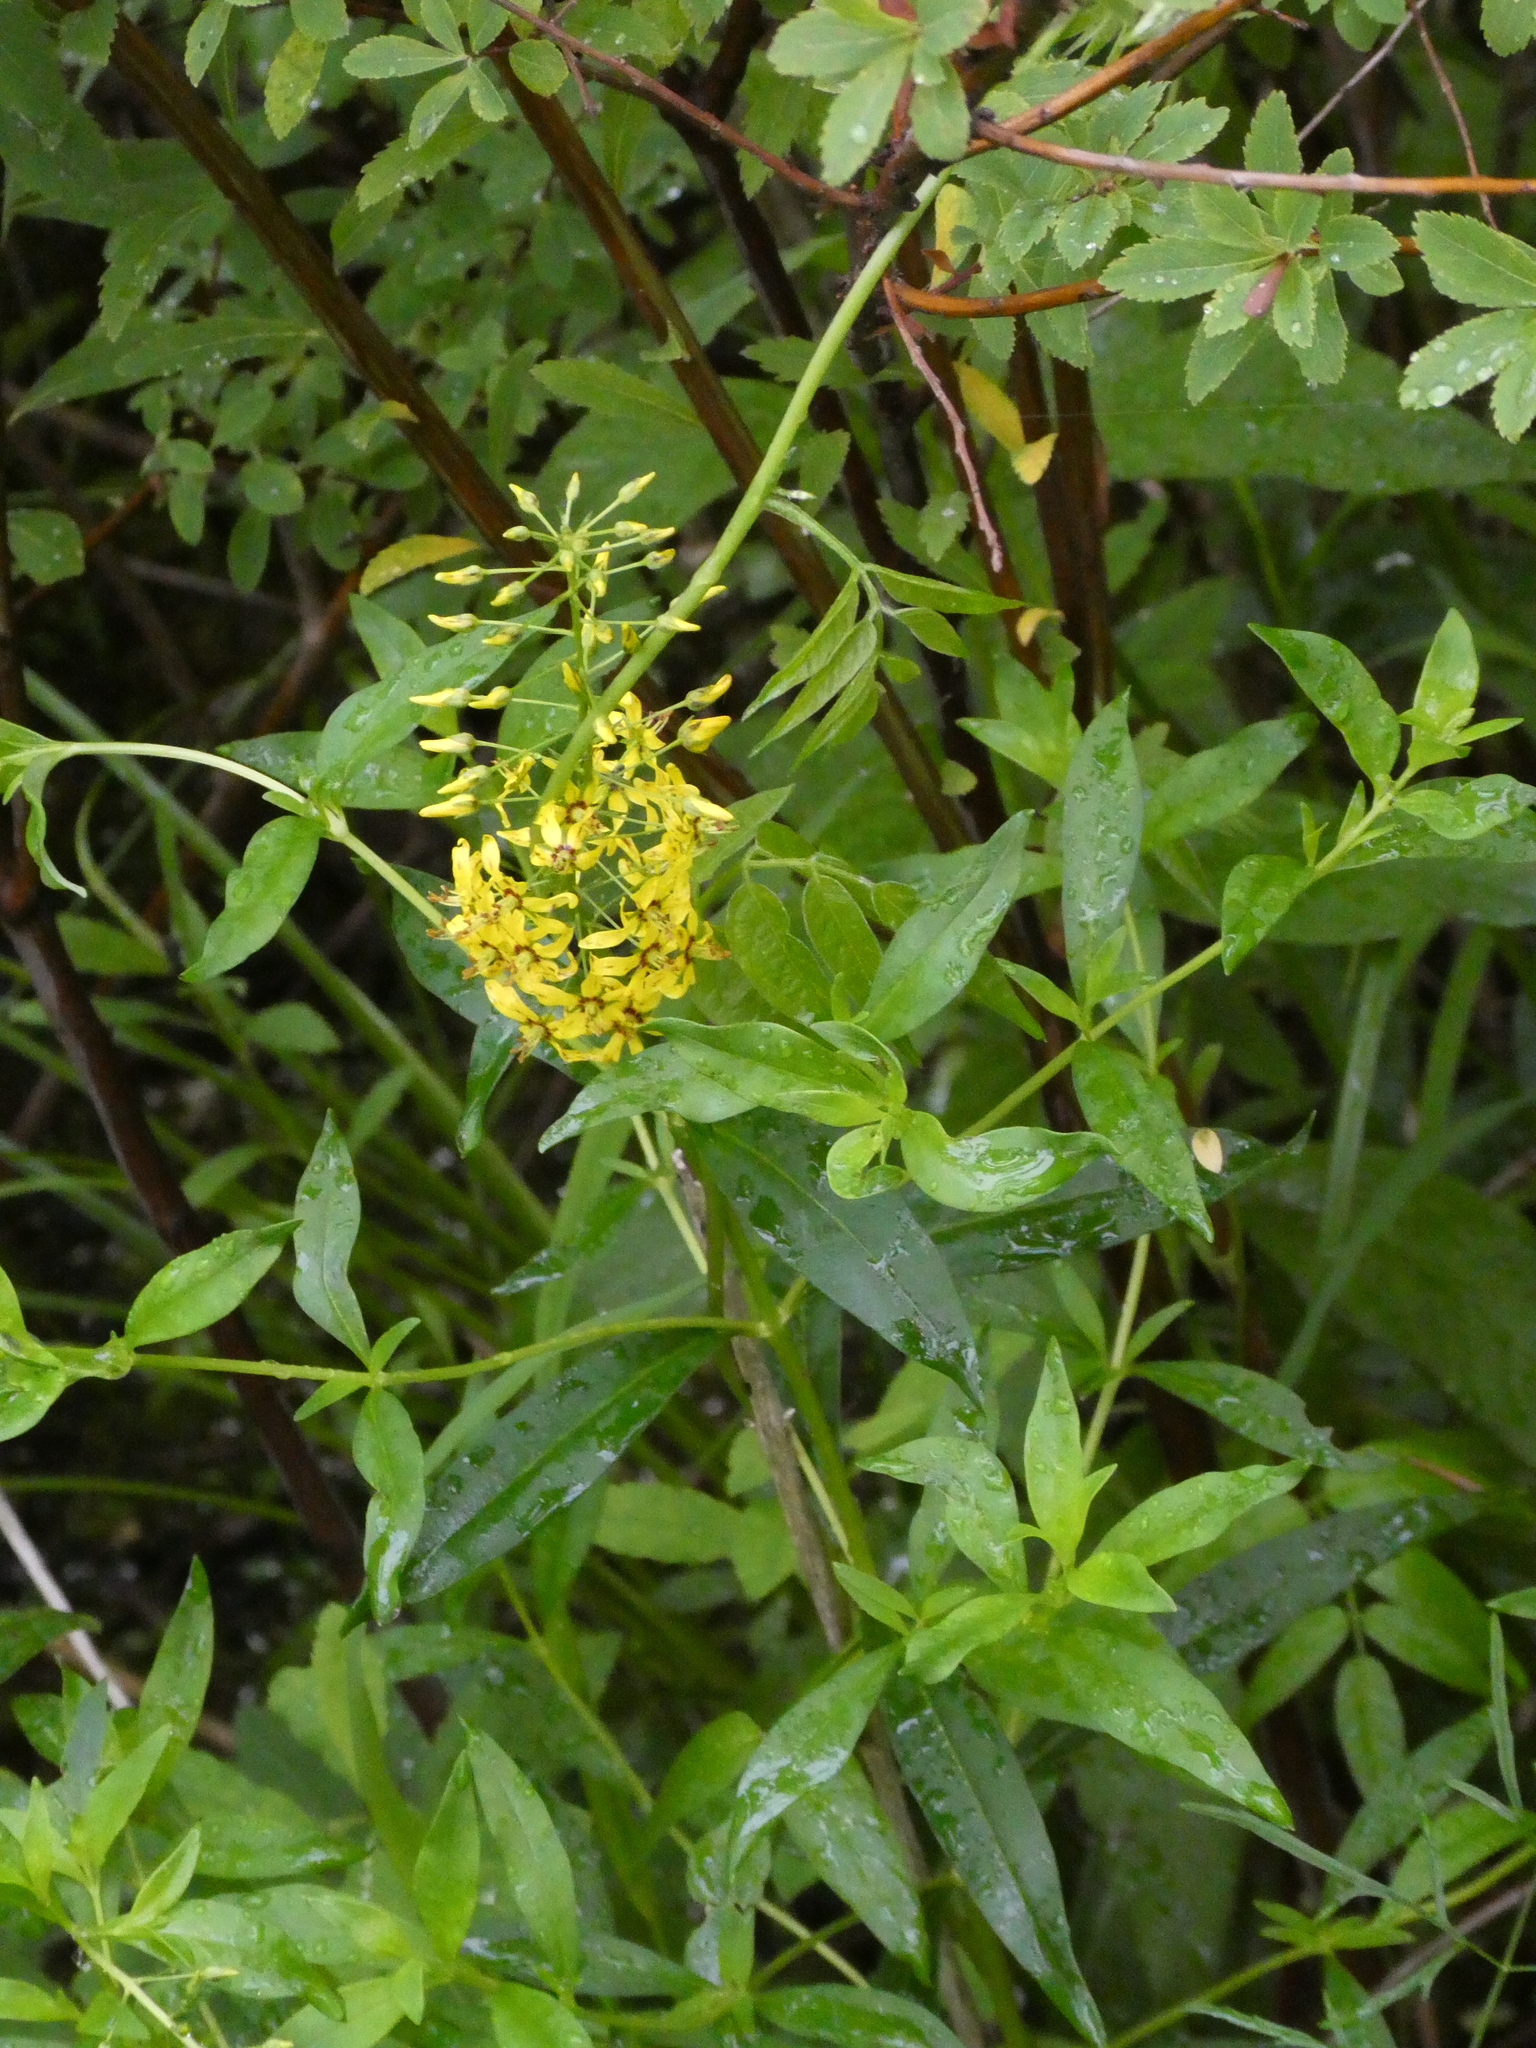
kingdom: Plantae
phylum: Tracheophyta
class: Magnoliopsida
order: Ericales
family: Primulaceae
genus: Lysimachia
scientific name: Lysimachia terrestris
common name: Lake loosestrife
